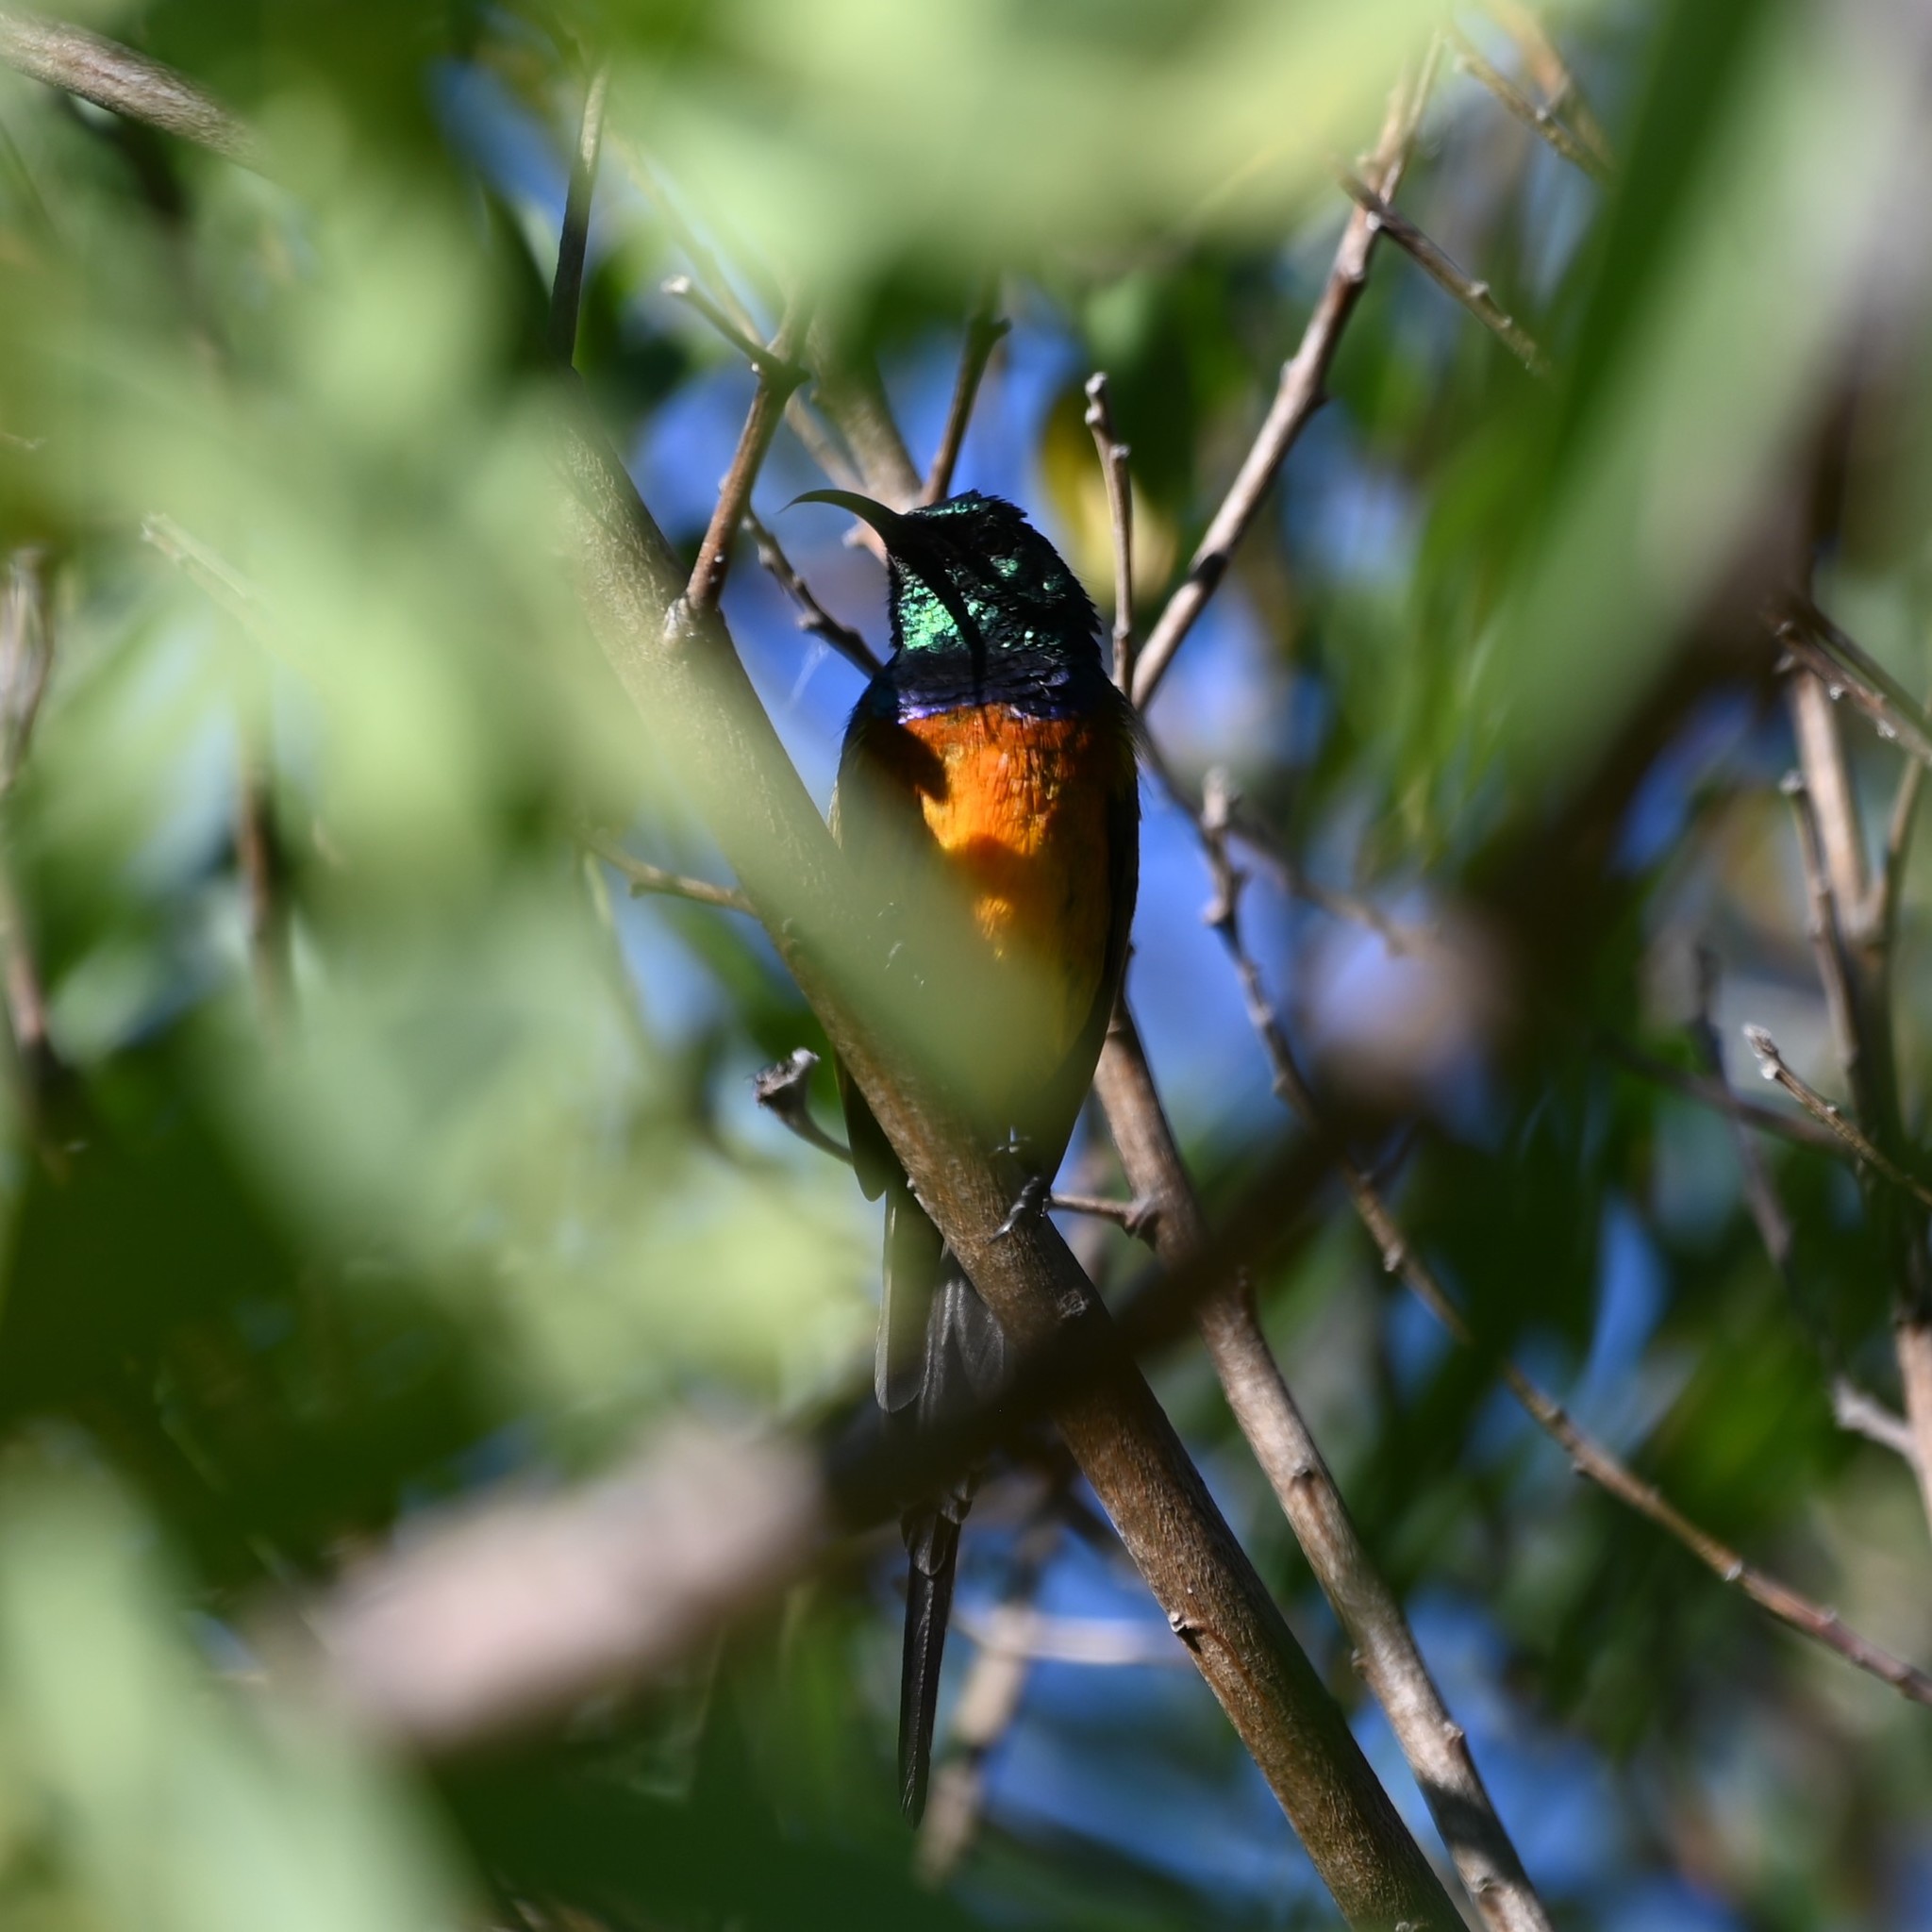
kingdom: Animalia
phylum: Chordata
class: Aves
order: Passeriformes
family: Nectariniidae
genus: Anthobaphes
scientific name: Anthobaphes violacea
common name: Orange-breasted sunbird
